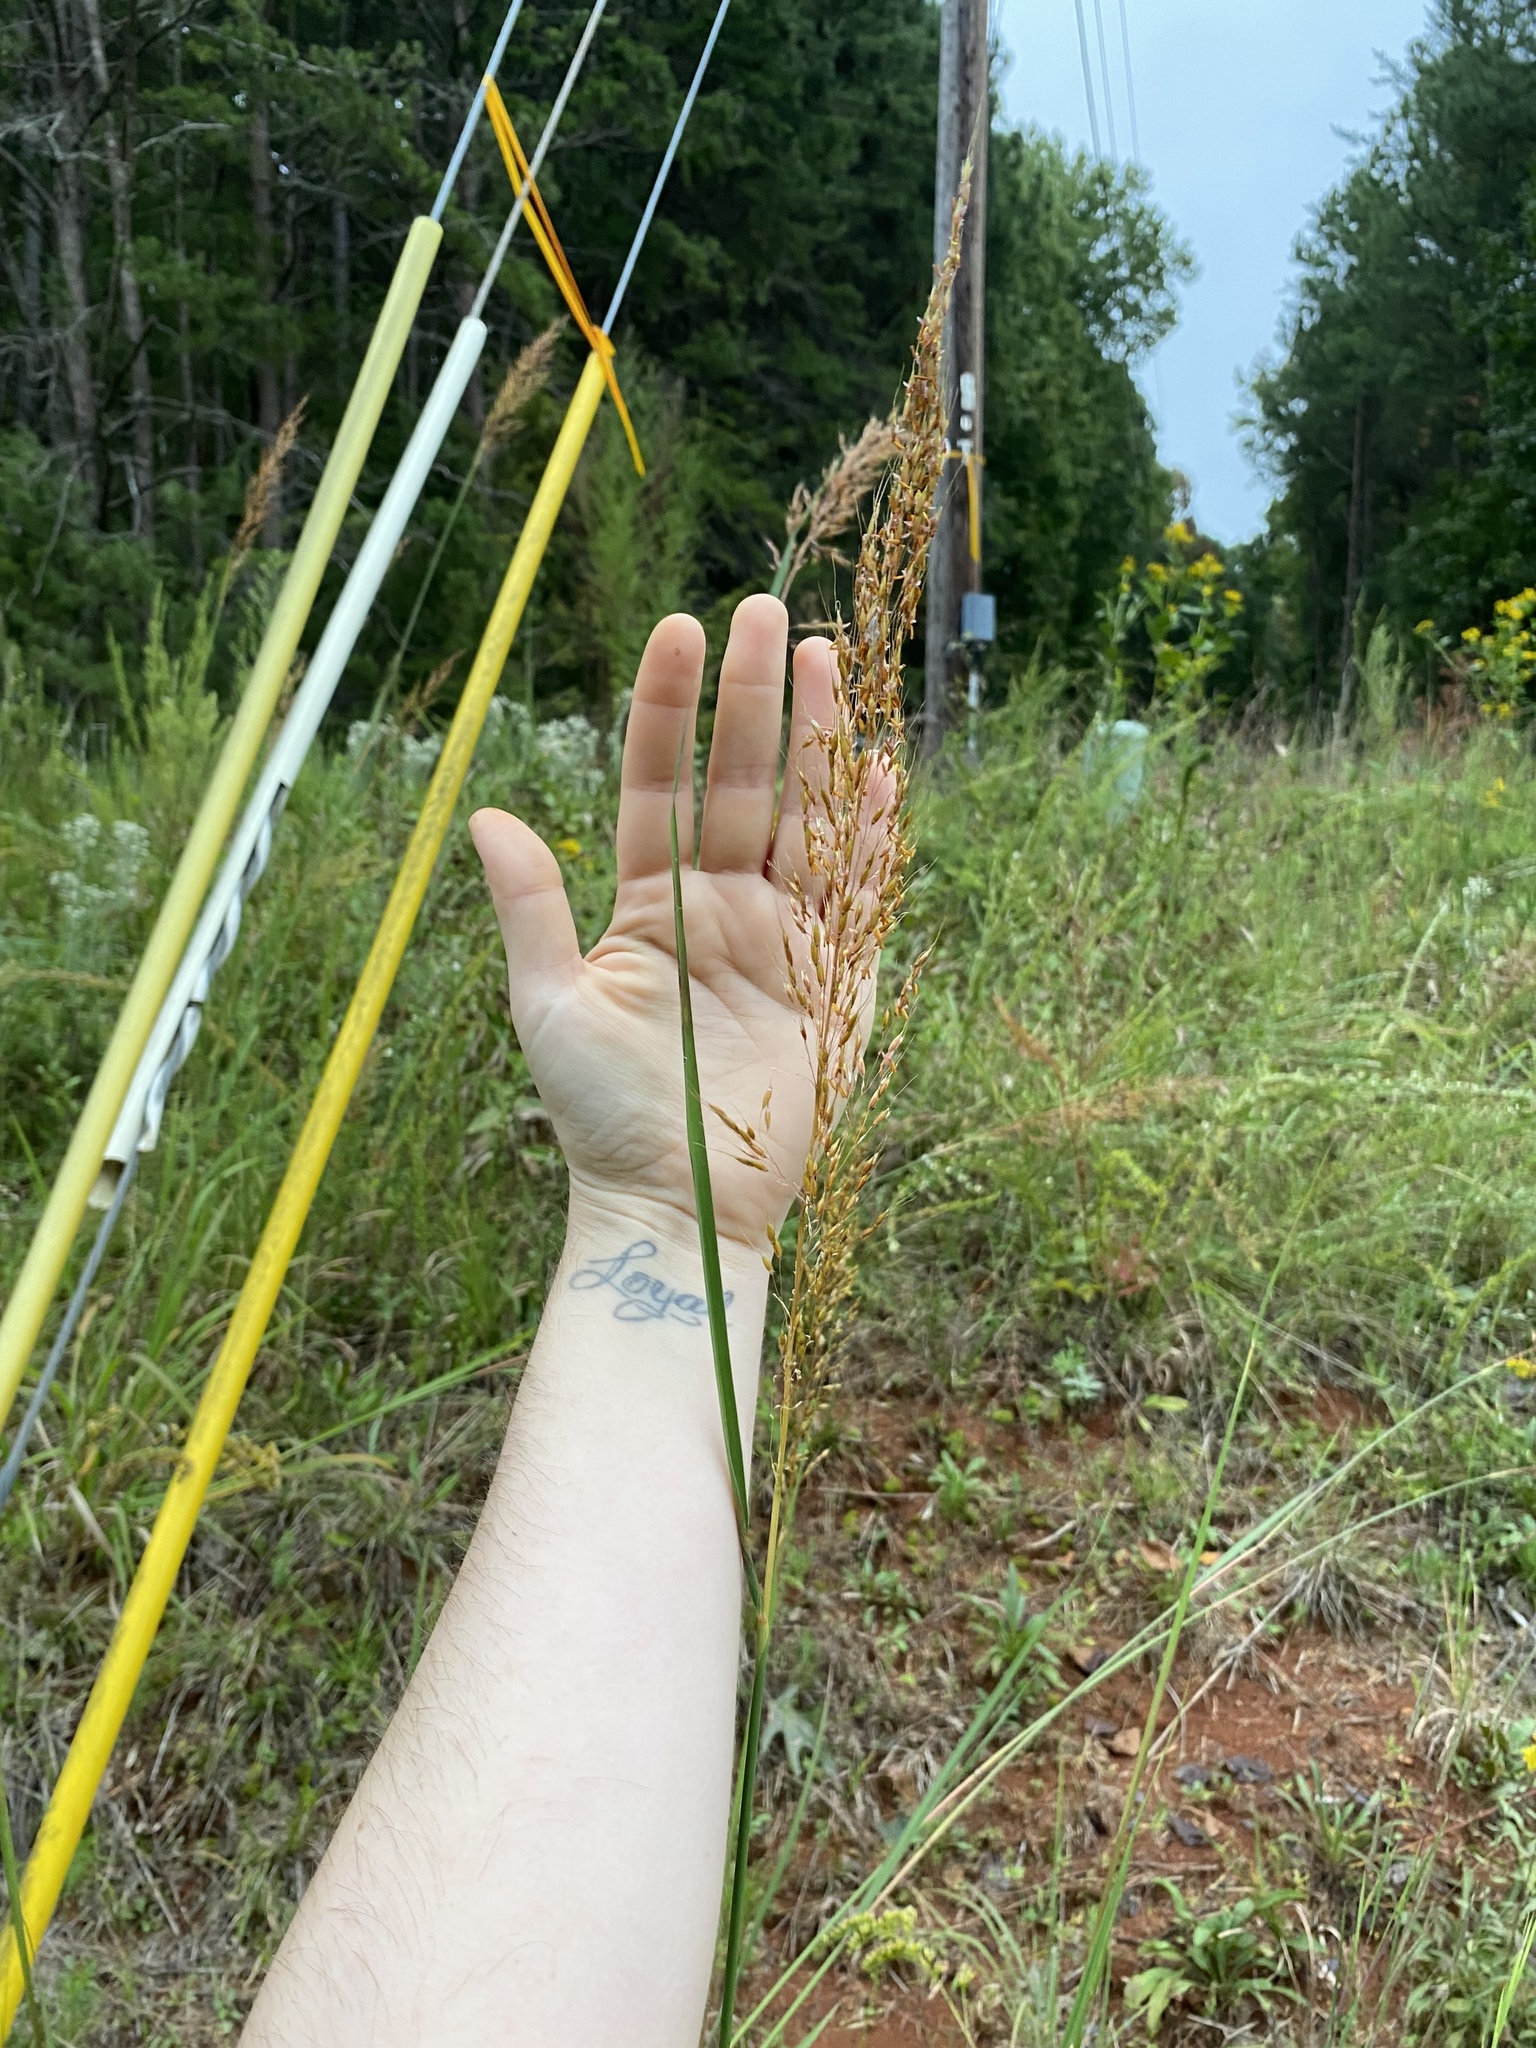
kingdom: Plantae
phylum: Tracheophyta
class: Liliopsida
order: Poales
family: Poaceae
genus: Sorghastrum
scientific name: Sorghastrum nutans
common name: Indian grass
